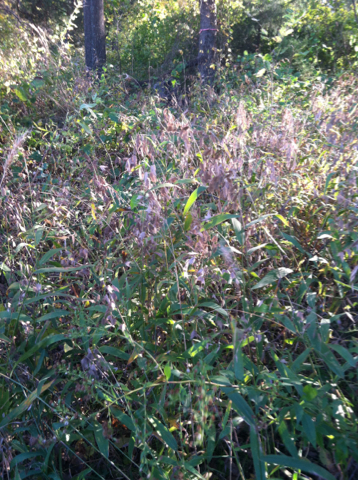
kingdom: Plantae
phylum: Tracheophyta
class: Liliopsida
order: Poales
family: Poaceae
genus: Chasmanthium
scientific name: Chasmanthium latifolium
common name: Broad-leaved chasmanthium
